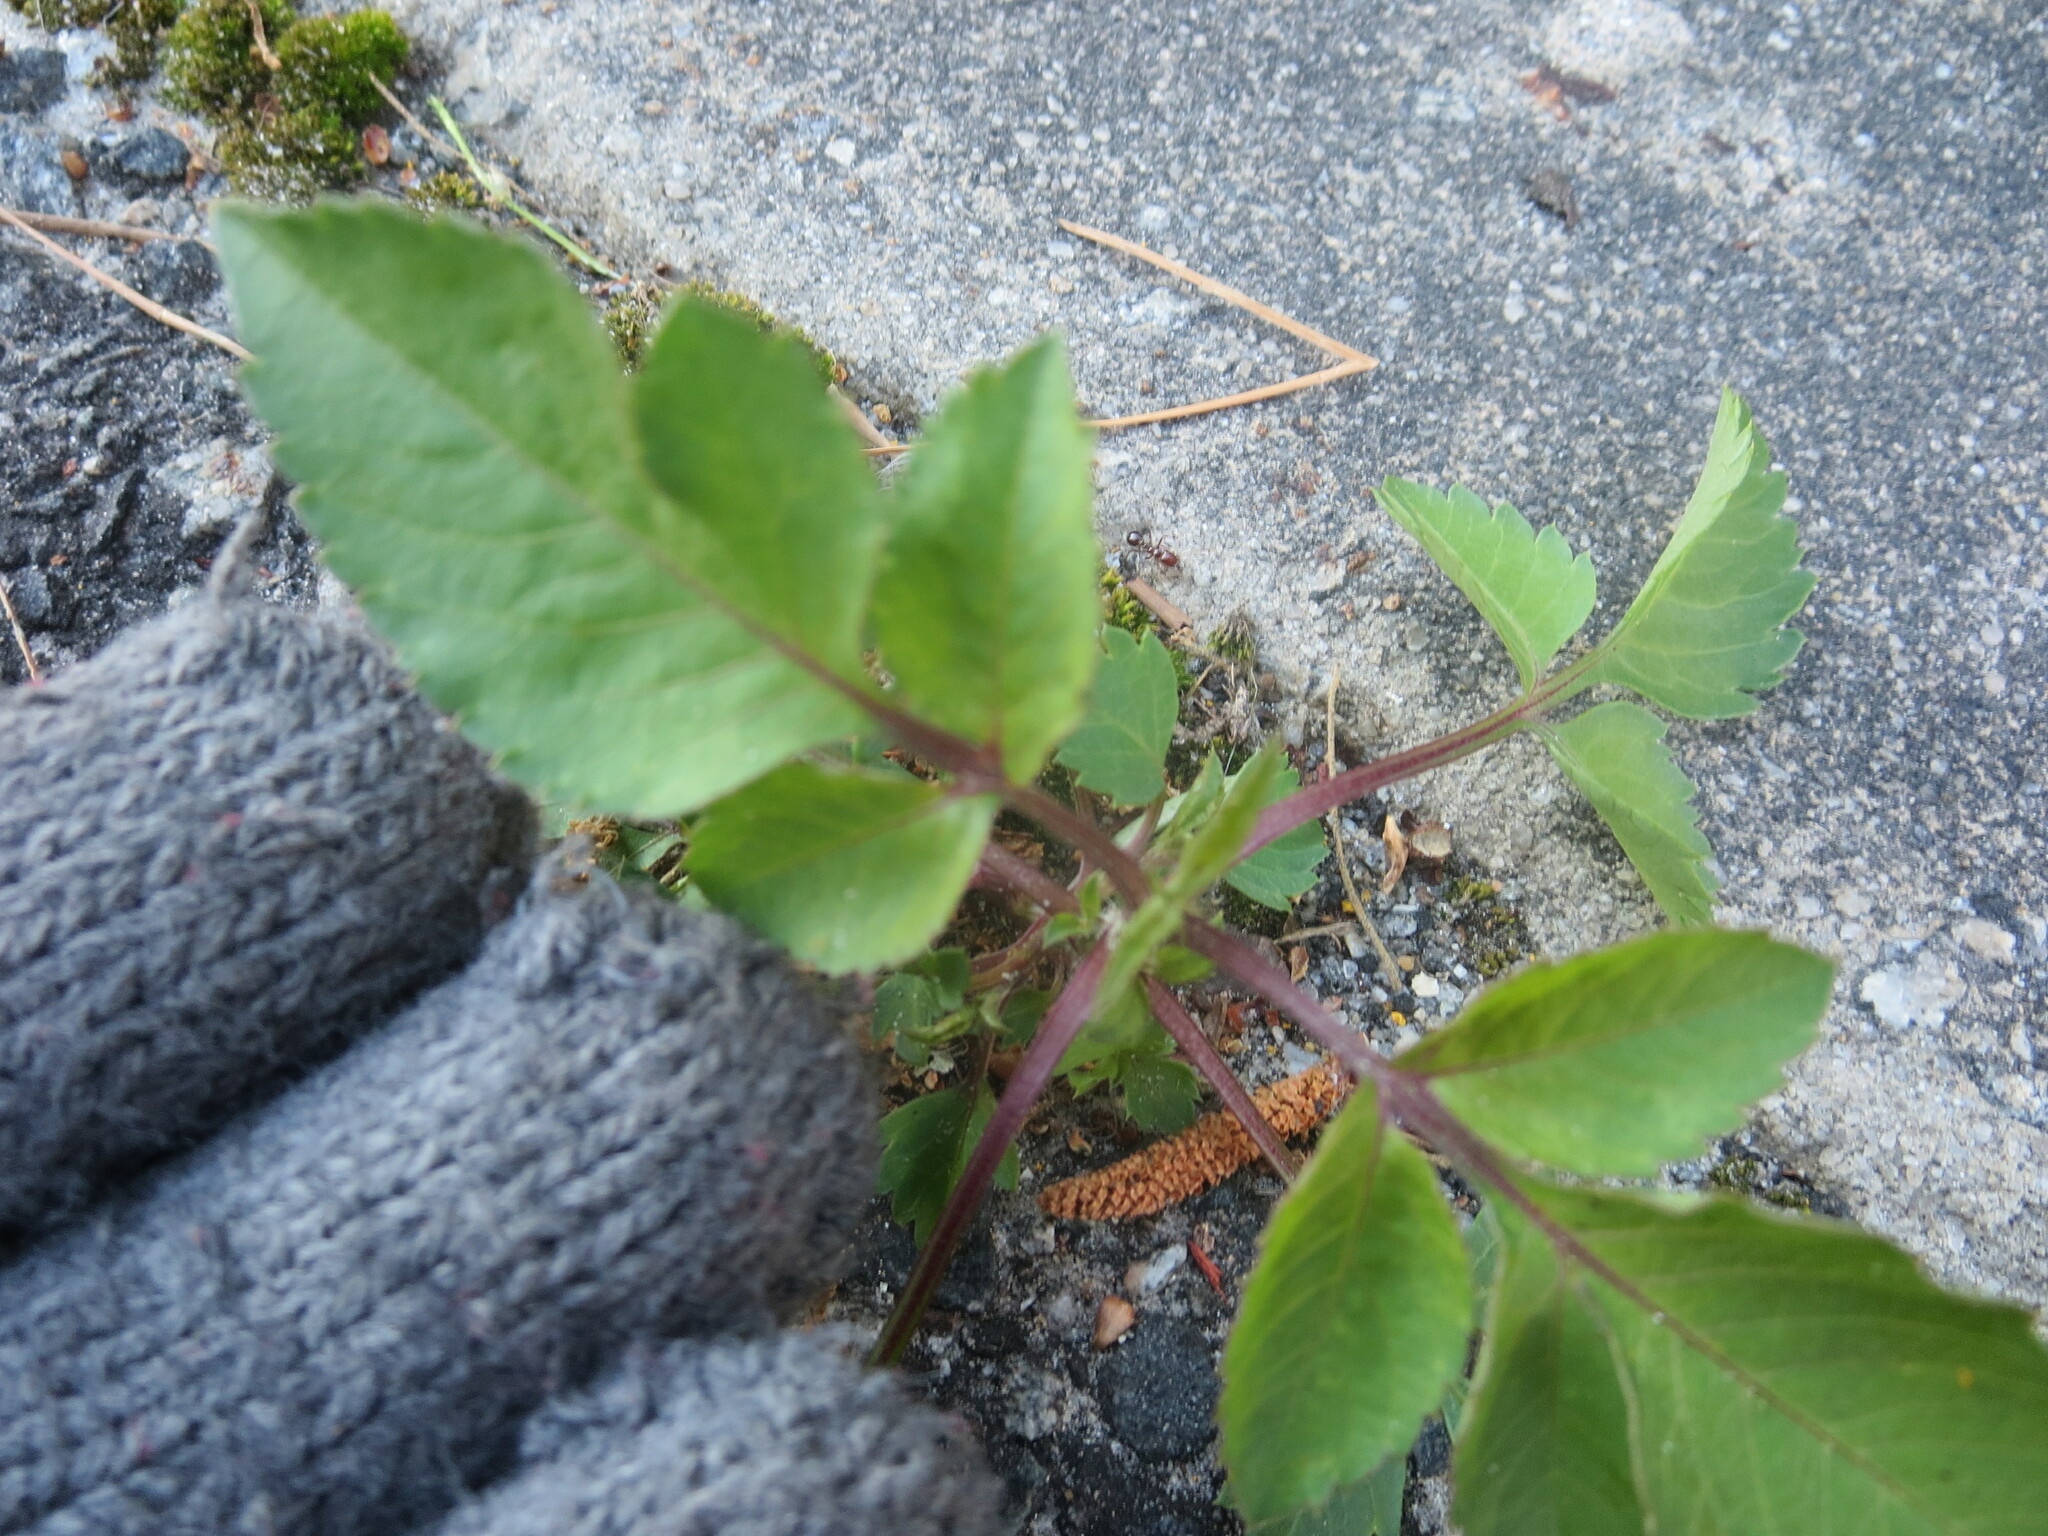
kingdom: Plantae
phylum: Tracheophyta
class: Magnoliopsida
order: Asterales
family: Asteraceae
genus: Bidens
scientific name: Bidens alba
